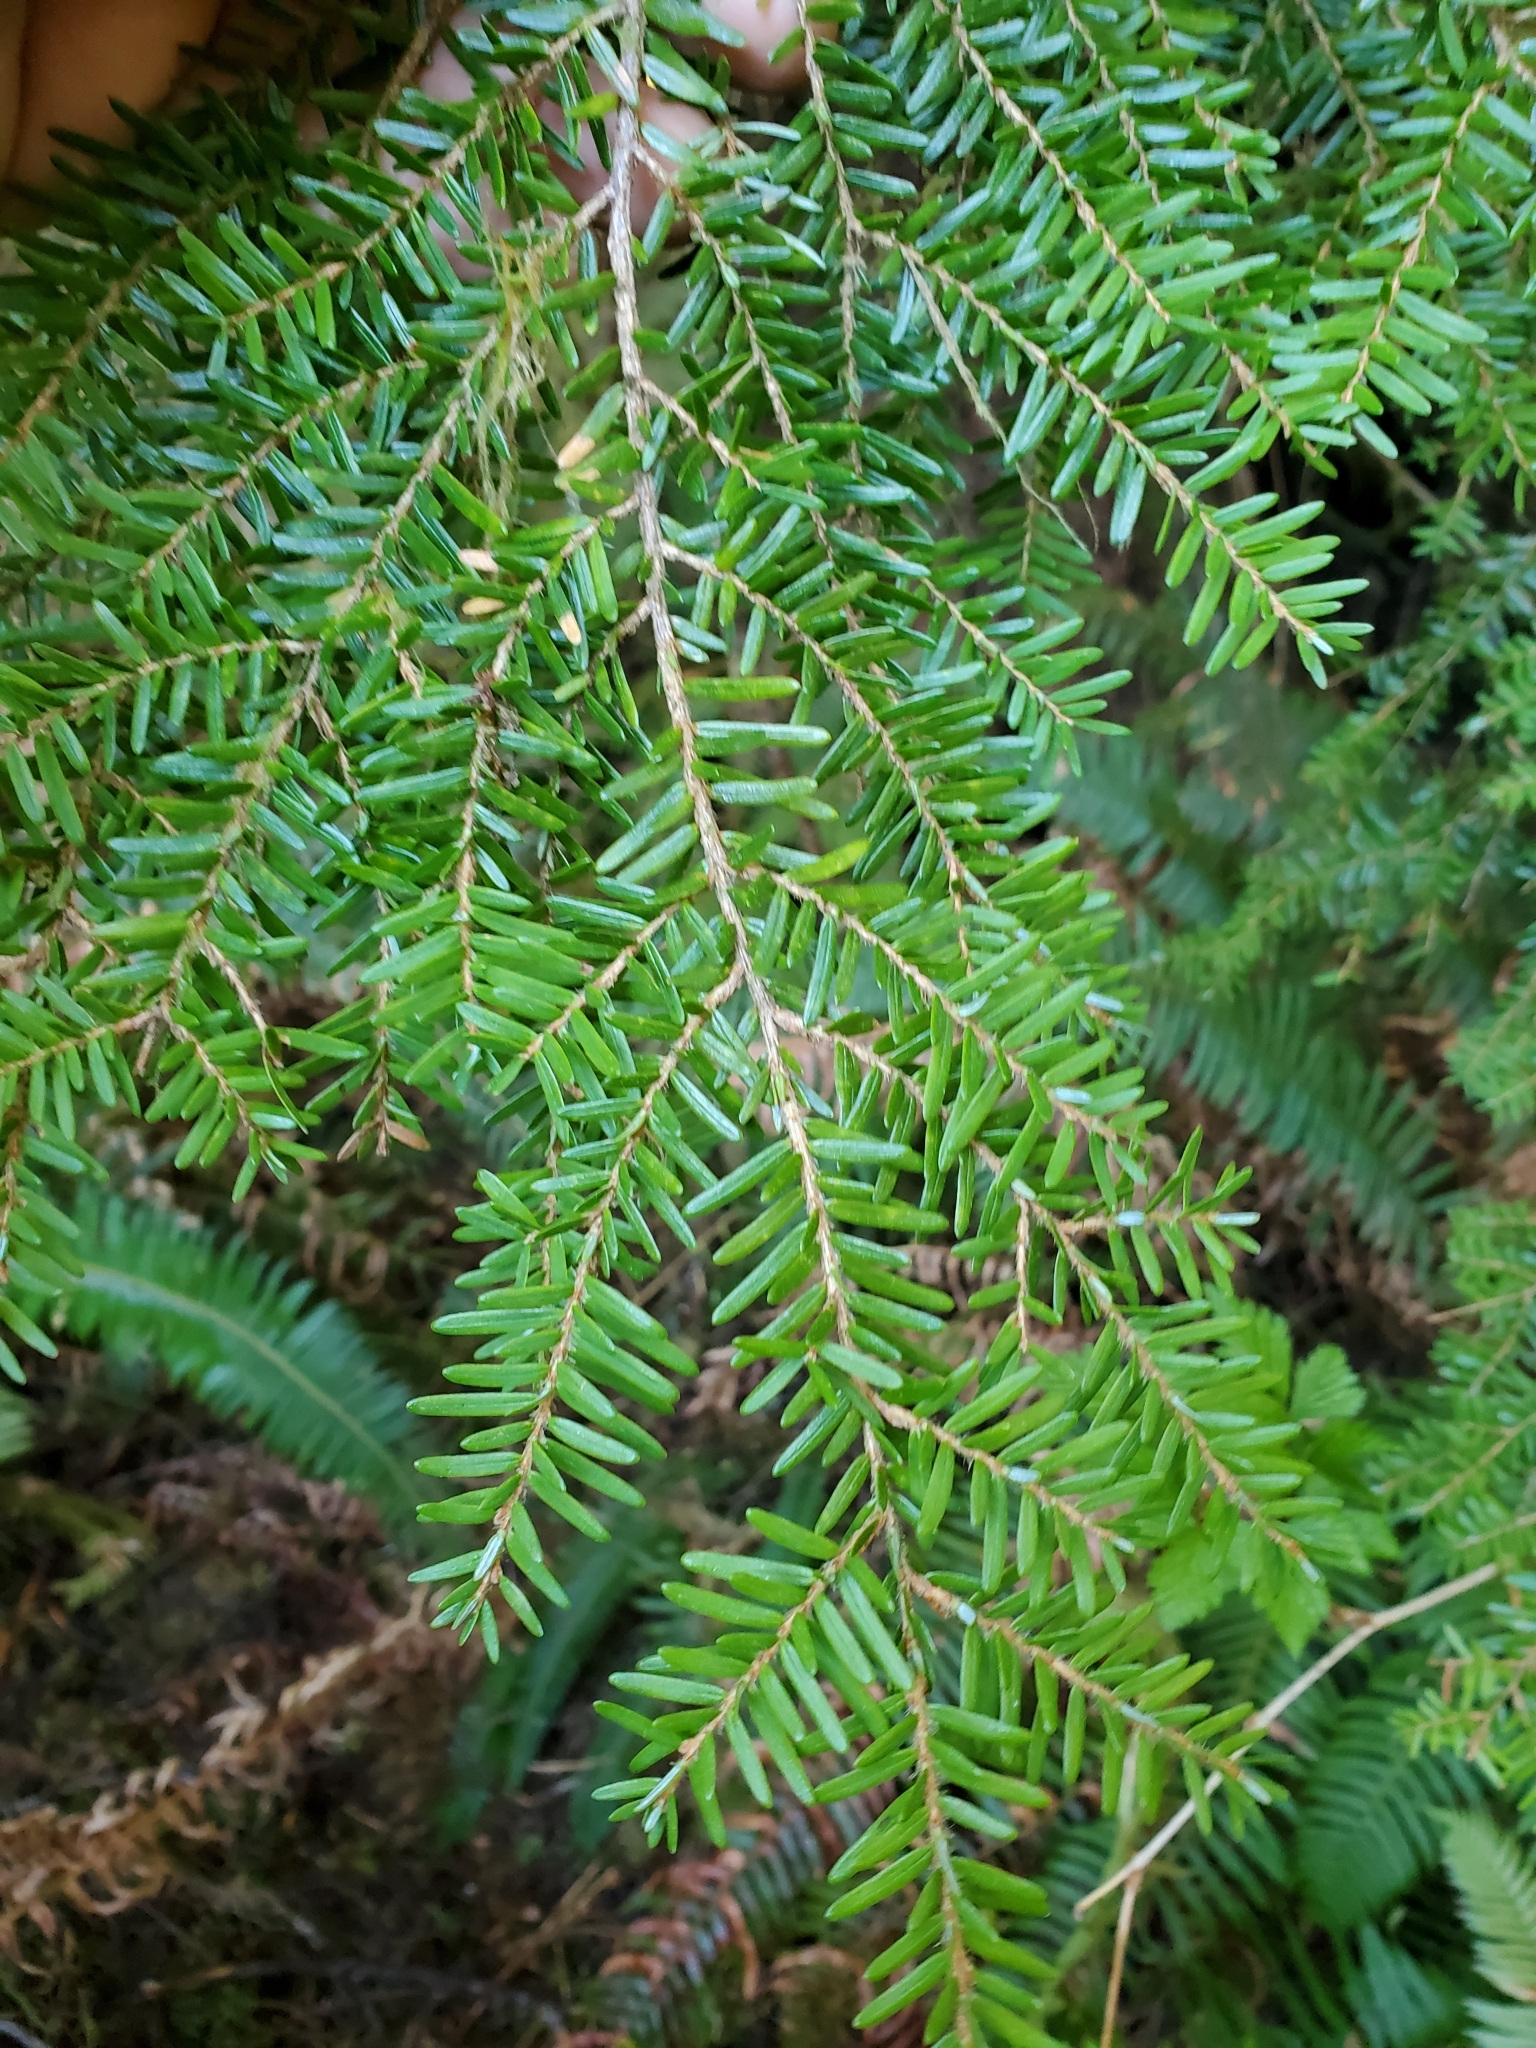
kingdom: Plantae
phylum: Tracheophyta
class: Pinopsida
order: Pinales
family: Pinaceae
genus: Tsuga
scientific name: Tsuga heterophylla
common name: Western hemlock
